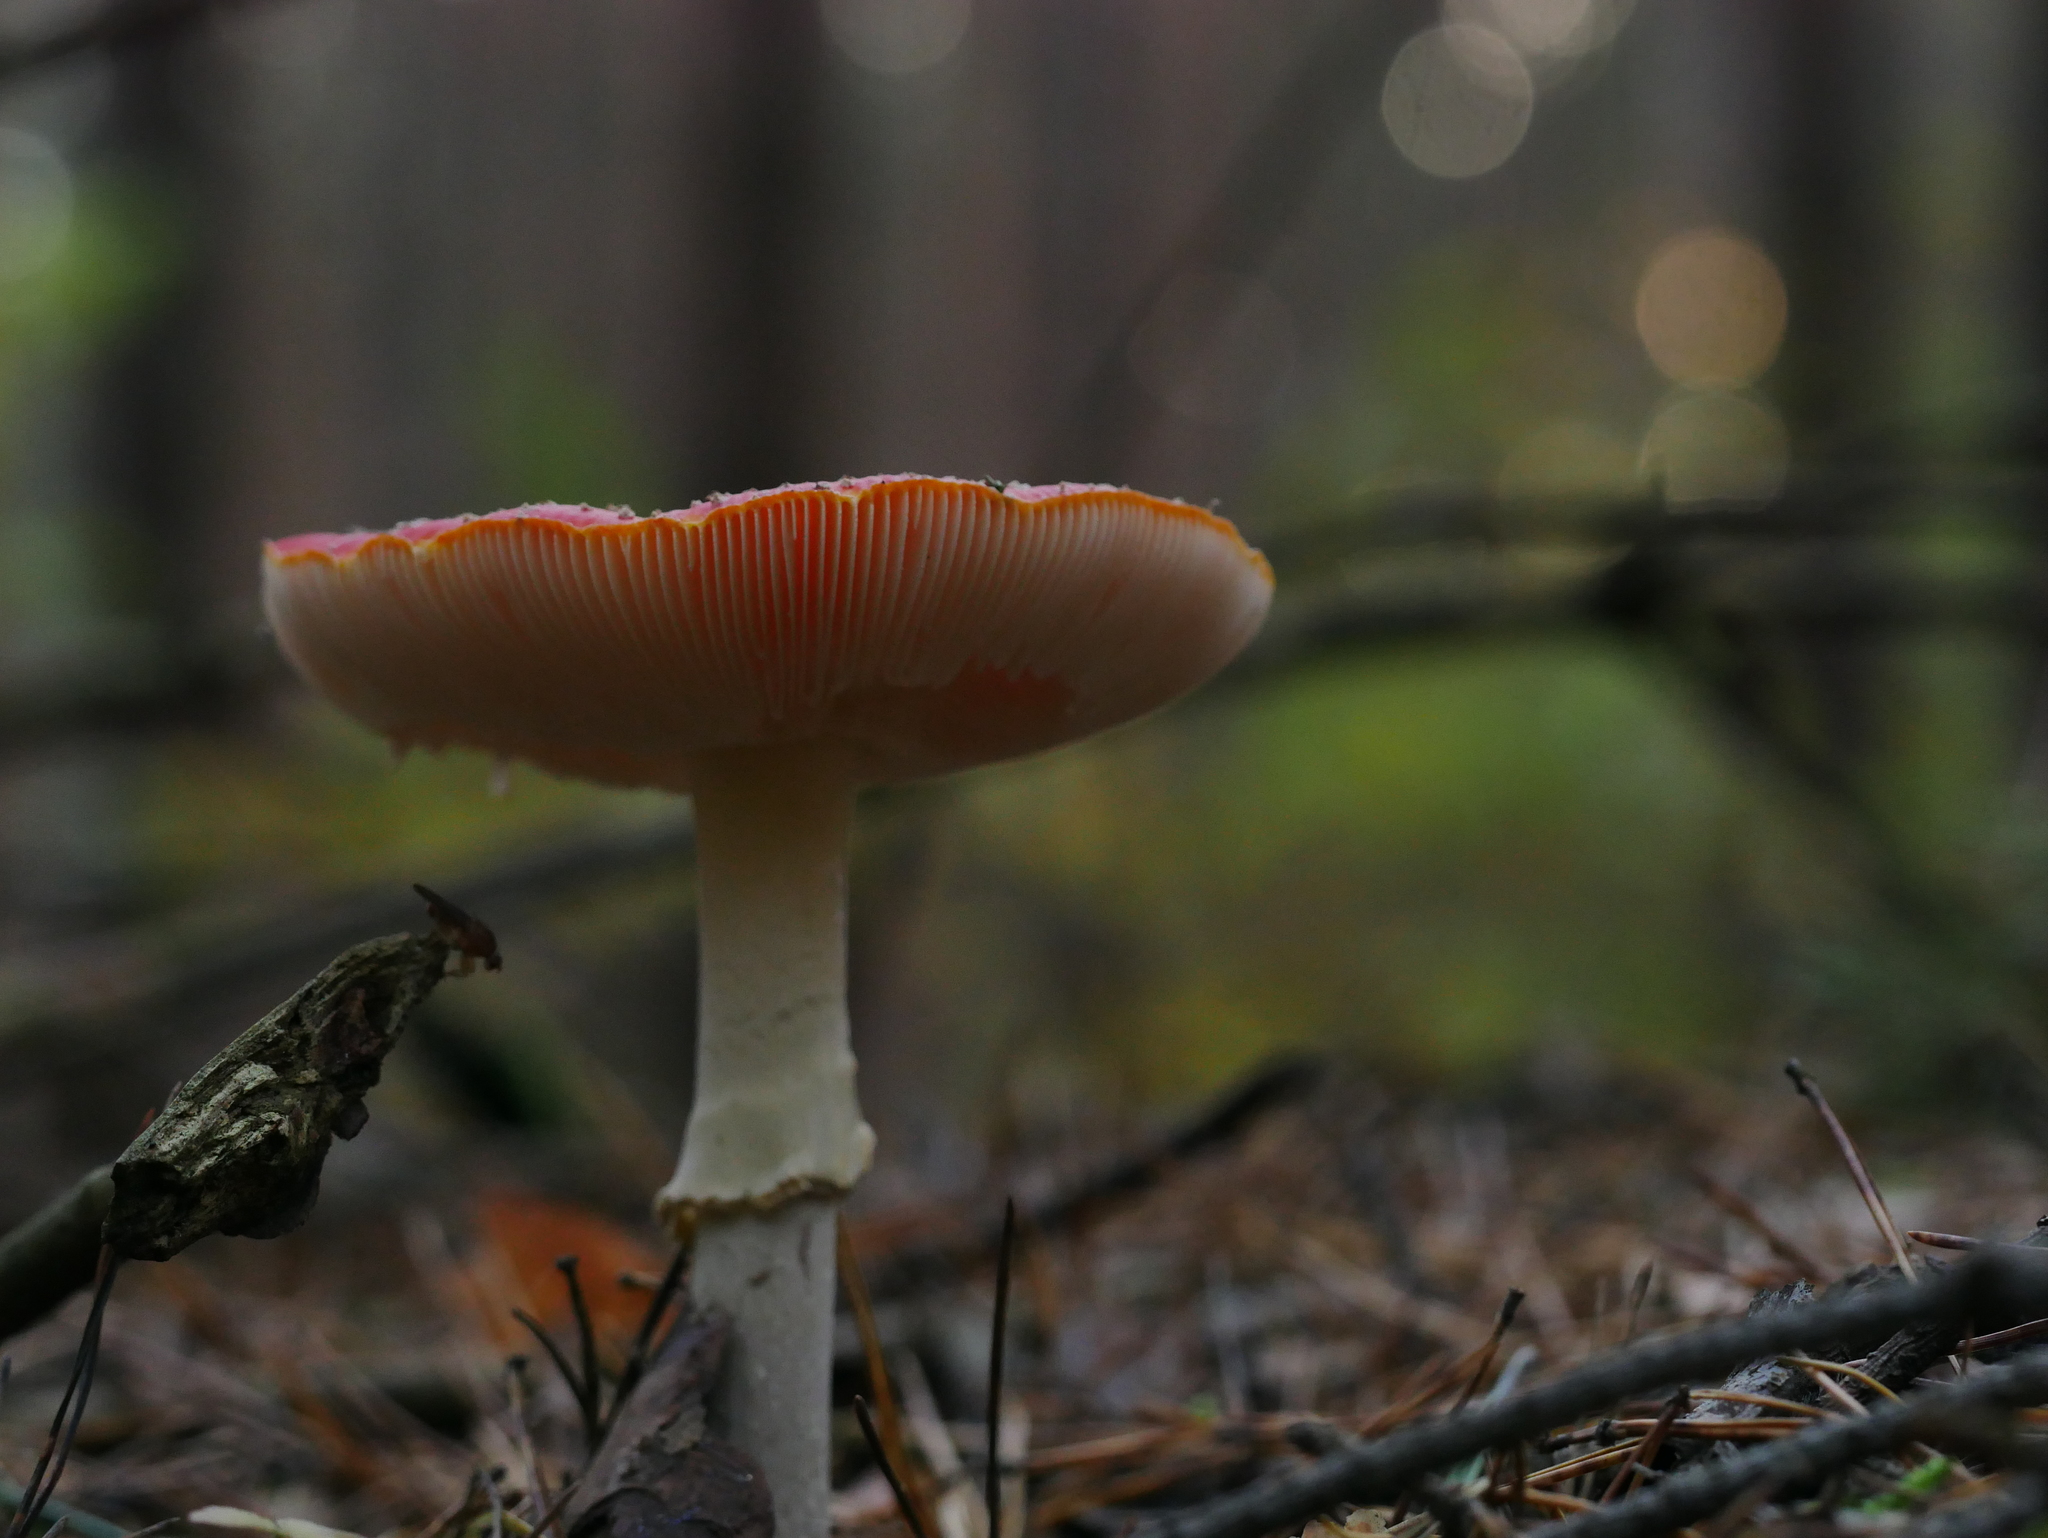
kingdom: Fungi
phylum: Basidiomycota
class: Agaricomycetes
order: Agaricales
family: Amanitaceae
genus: Amanita
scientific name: Amanita muscaria
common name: Fly agaric
